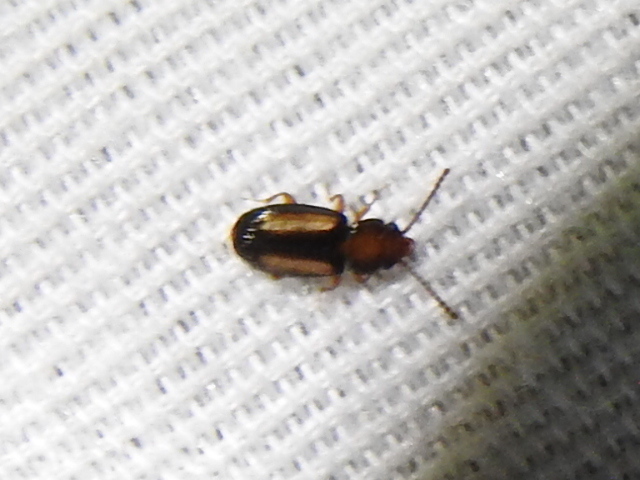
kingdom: Animalia
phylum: Arthropoda
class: Insecta
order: Coleoptera
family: Laemophloeidae
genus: Laemophloeus
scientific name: Laemophloeus terminalis
